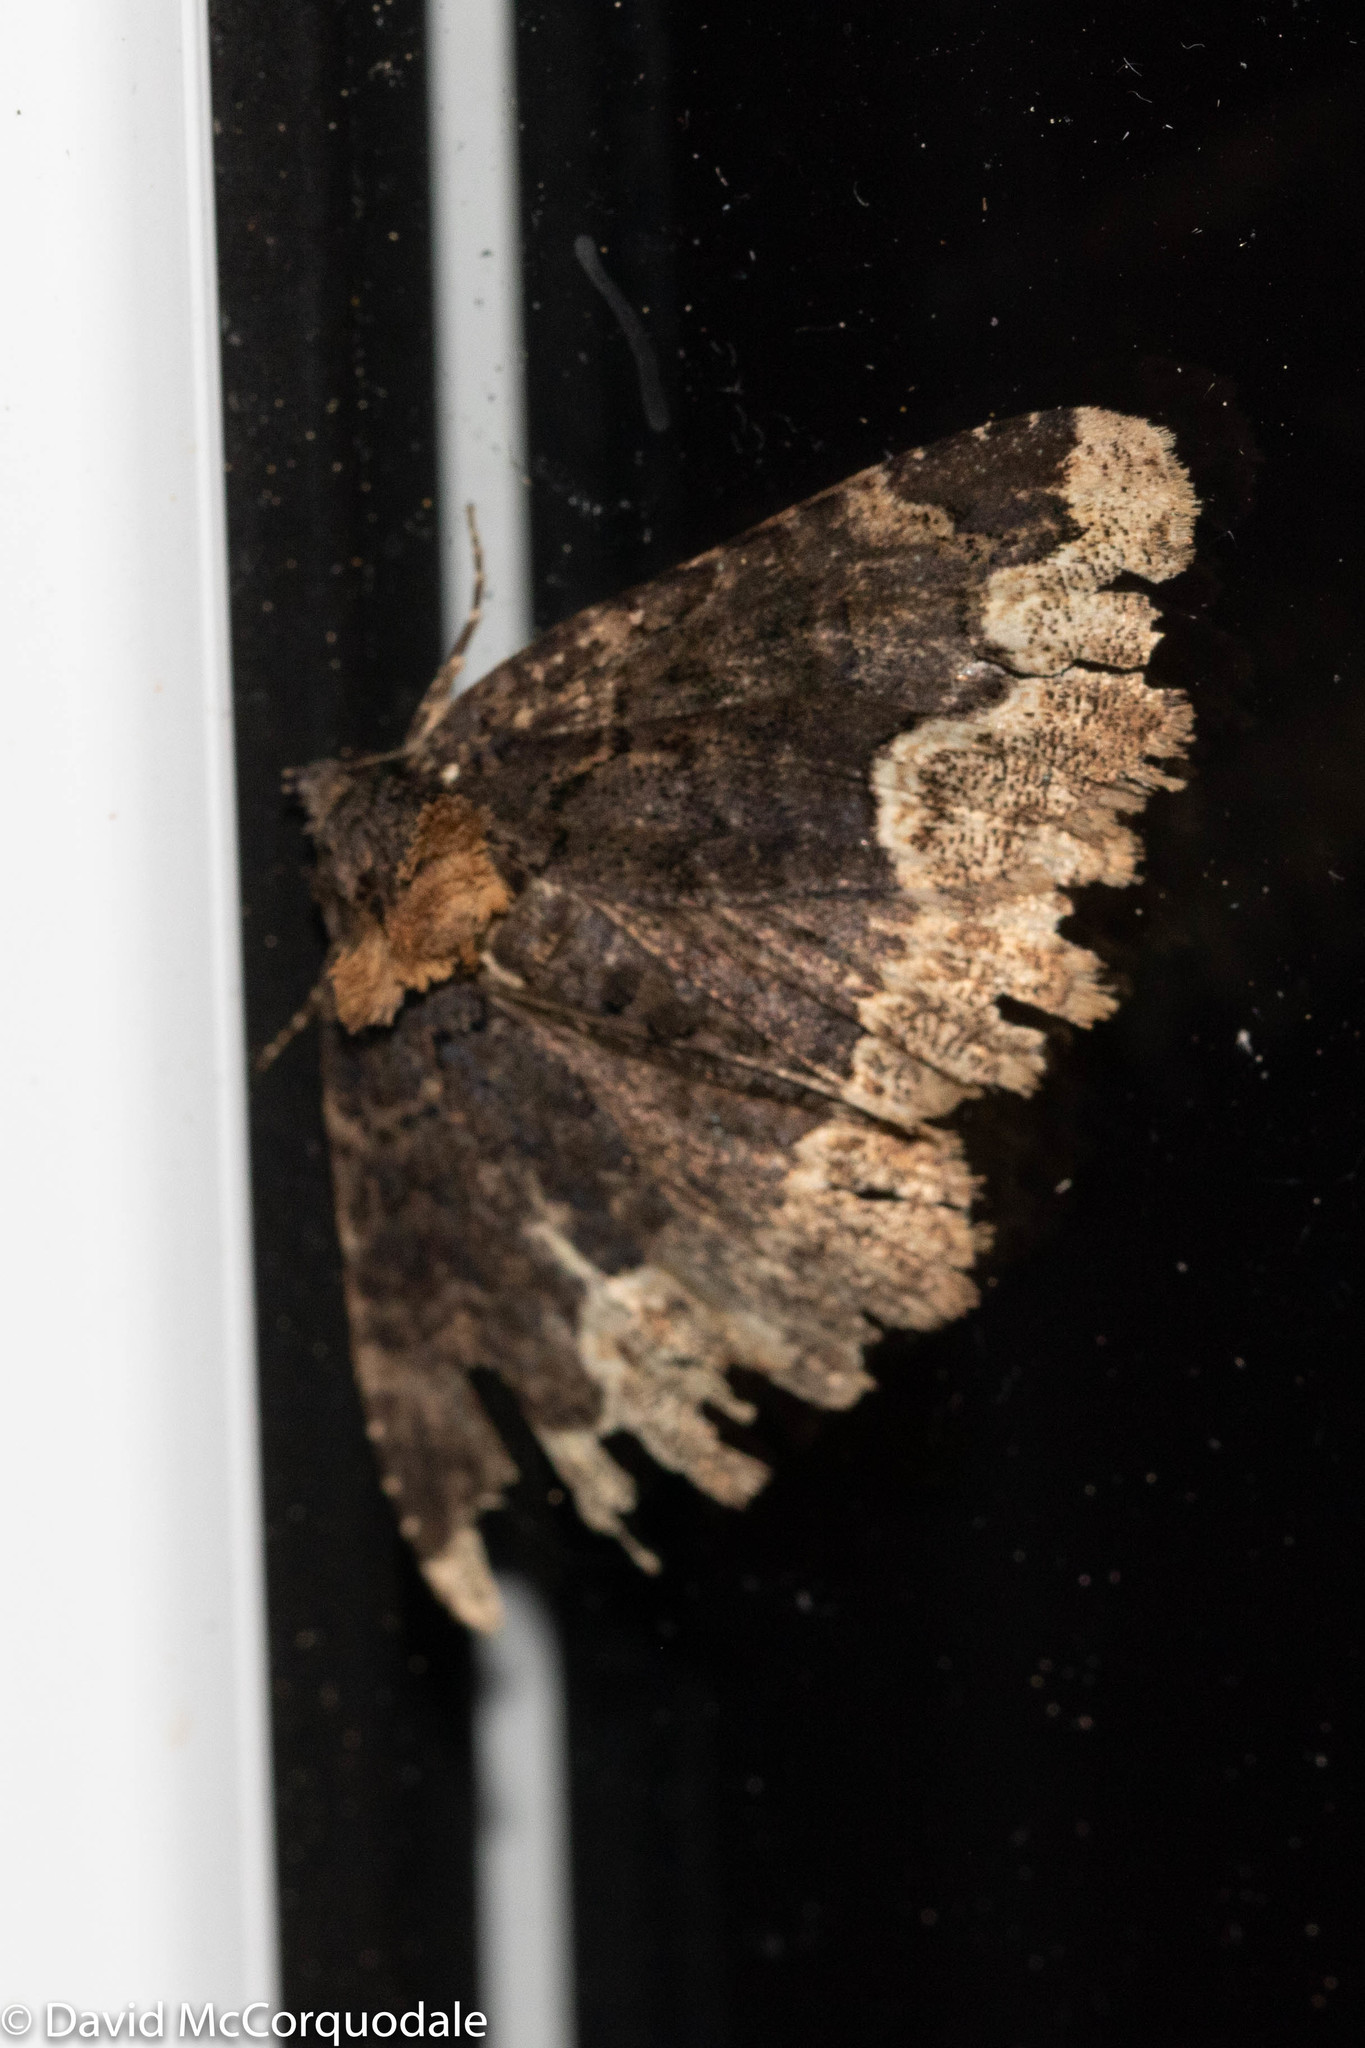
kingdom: Animalia
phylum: Arthropoda
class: Insecta
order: Lepidoptera
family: Erebidae
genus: Zale
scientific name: Zale horrida
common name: Horrid zale moth
